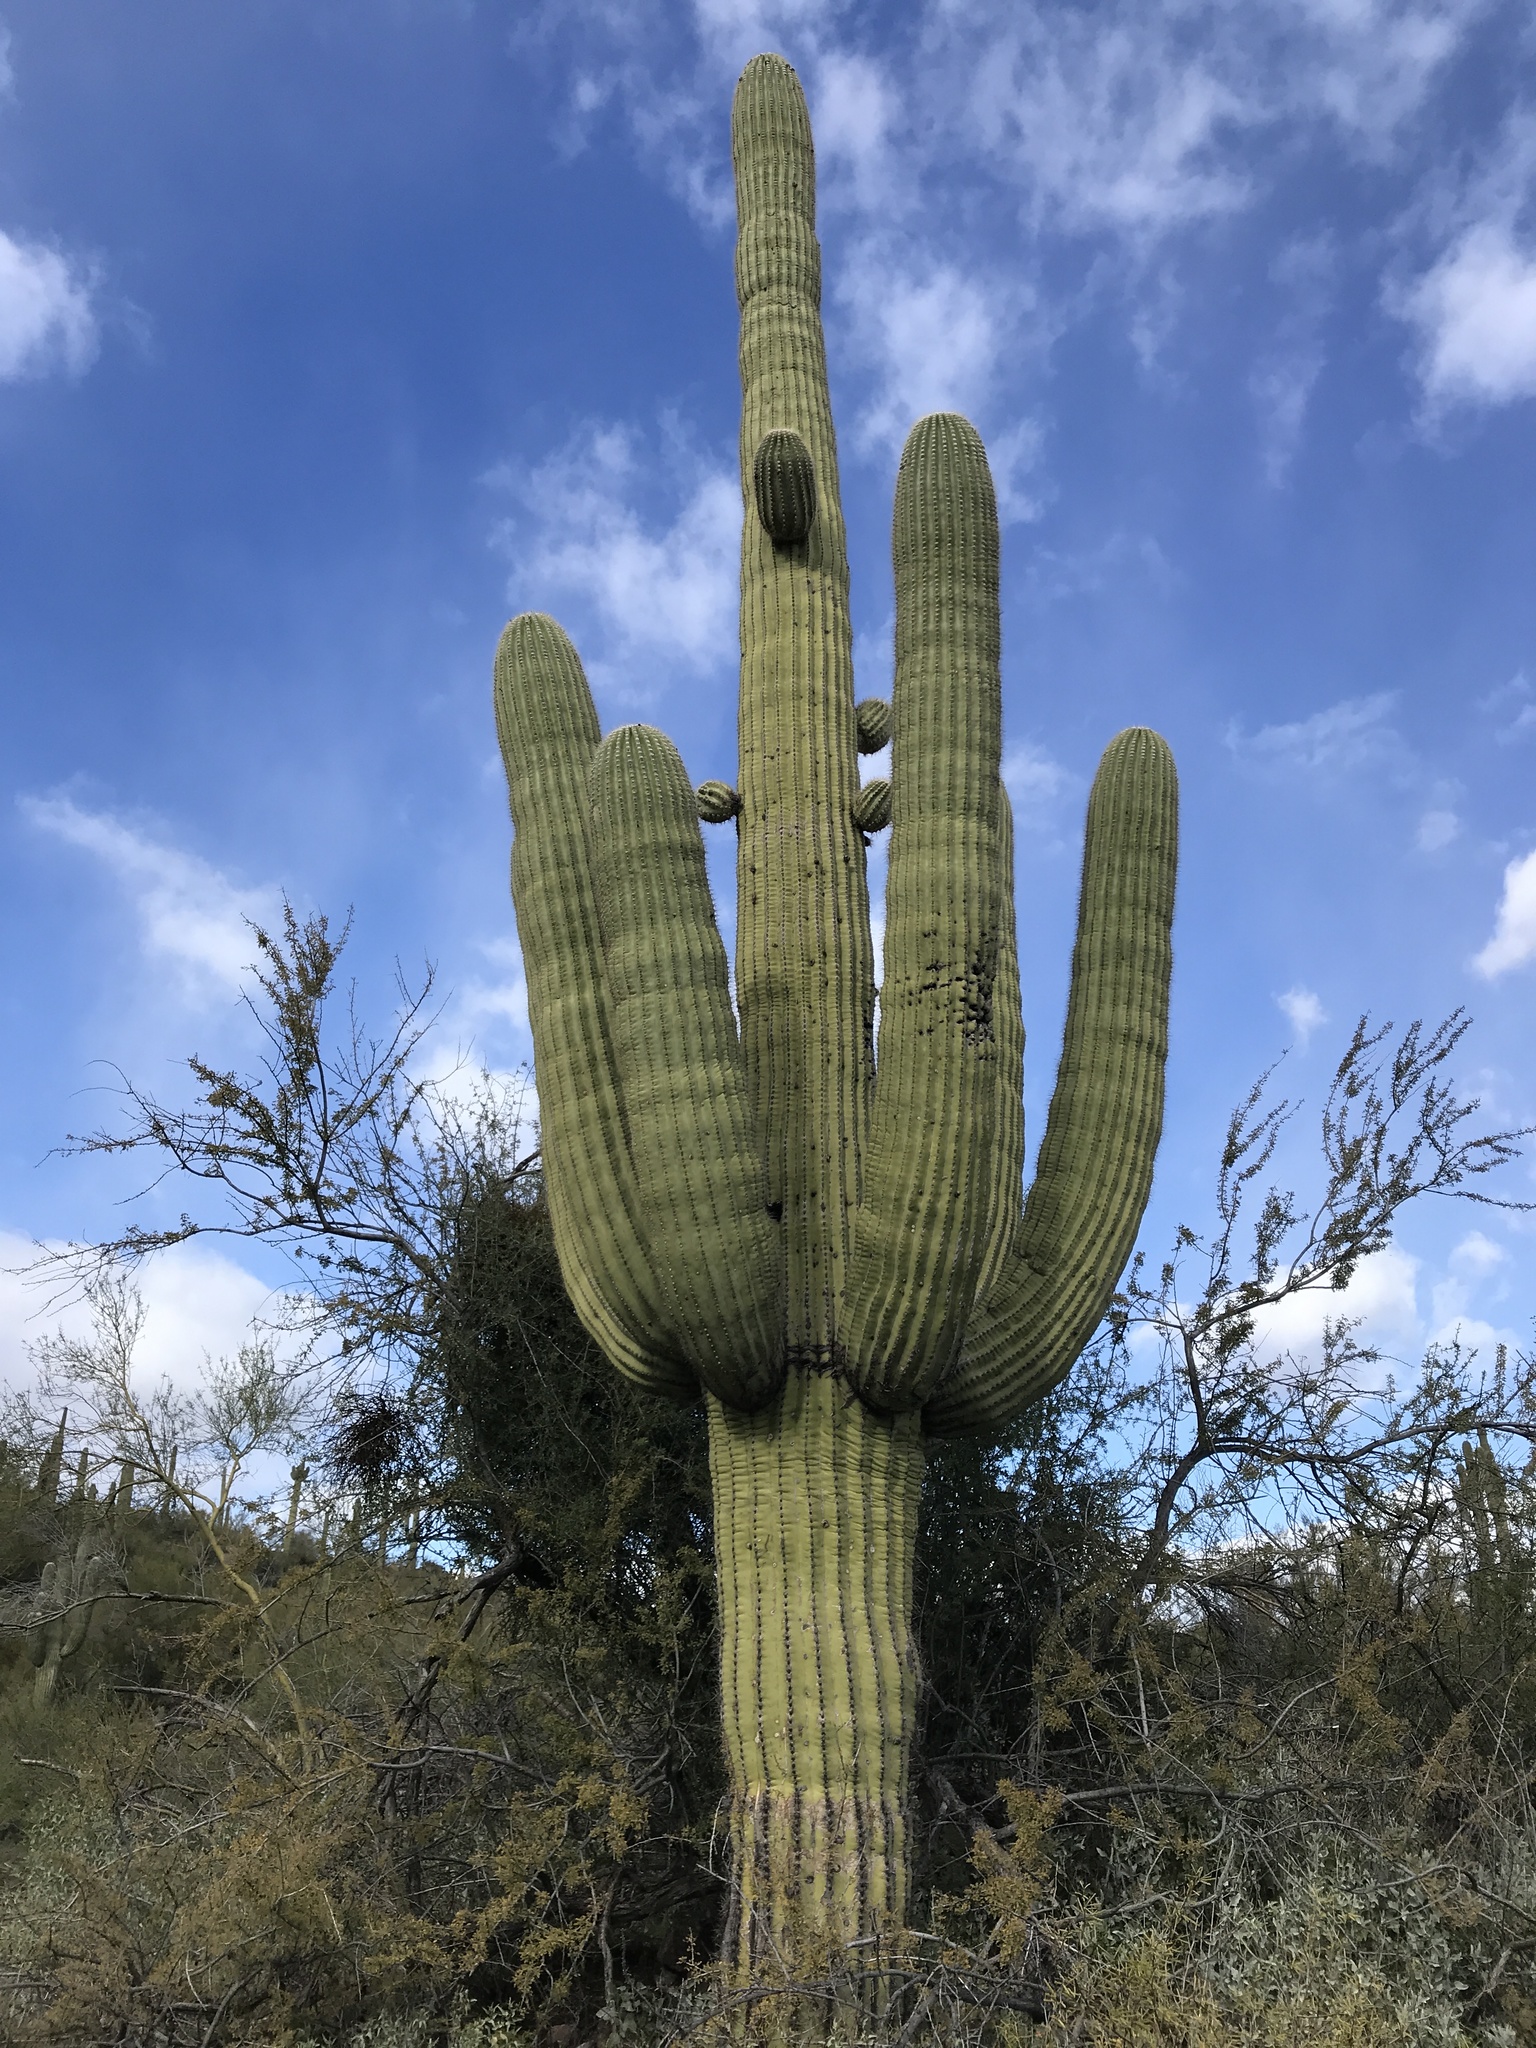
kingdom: Plantae
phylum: Tracheophyta
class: Magnoliopsida
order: Caryophyllales
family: Cactaceae
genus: Carnegiea
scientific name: Carnegiea gigantea
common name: Saguaro
